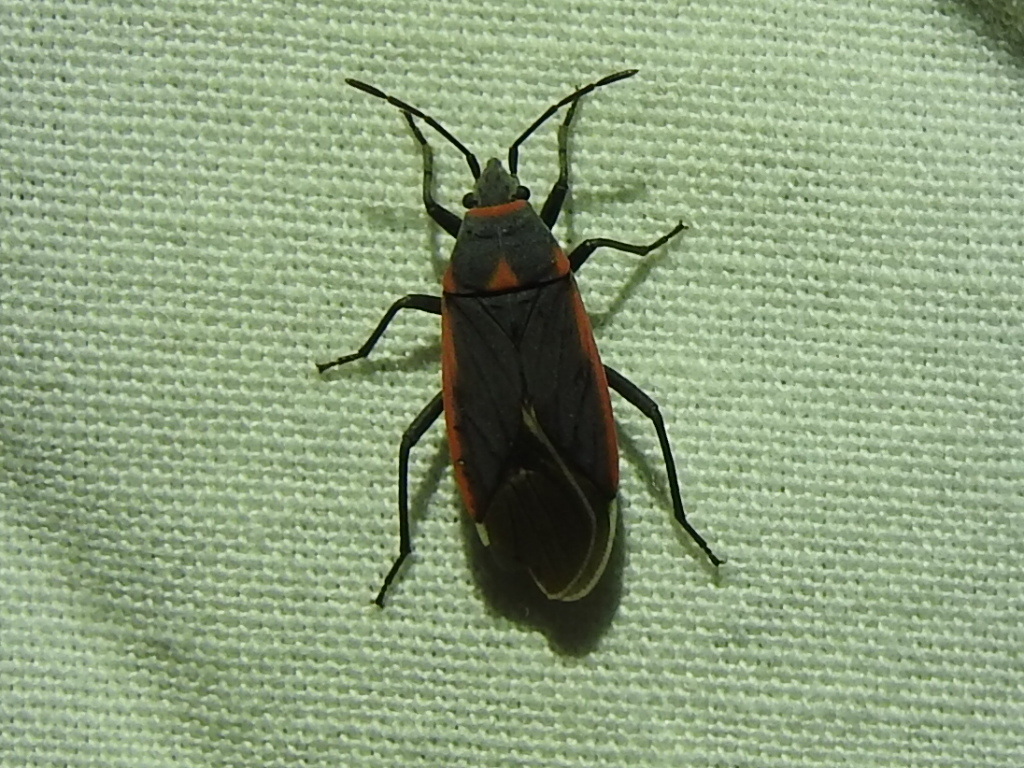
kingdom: Animalia
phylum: Arthropoda
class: Insecta
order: Hemiptera
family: Lygaeidae
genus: Melacoryphus
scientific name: Melacoryphus lateralis
